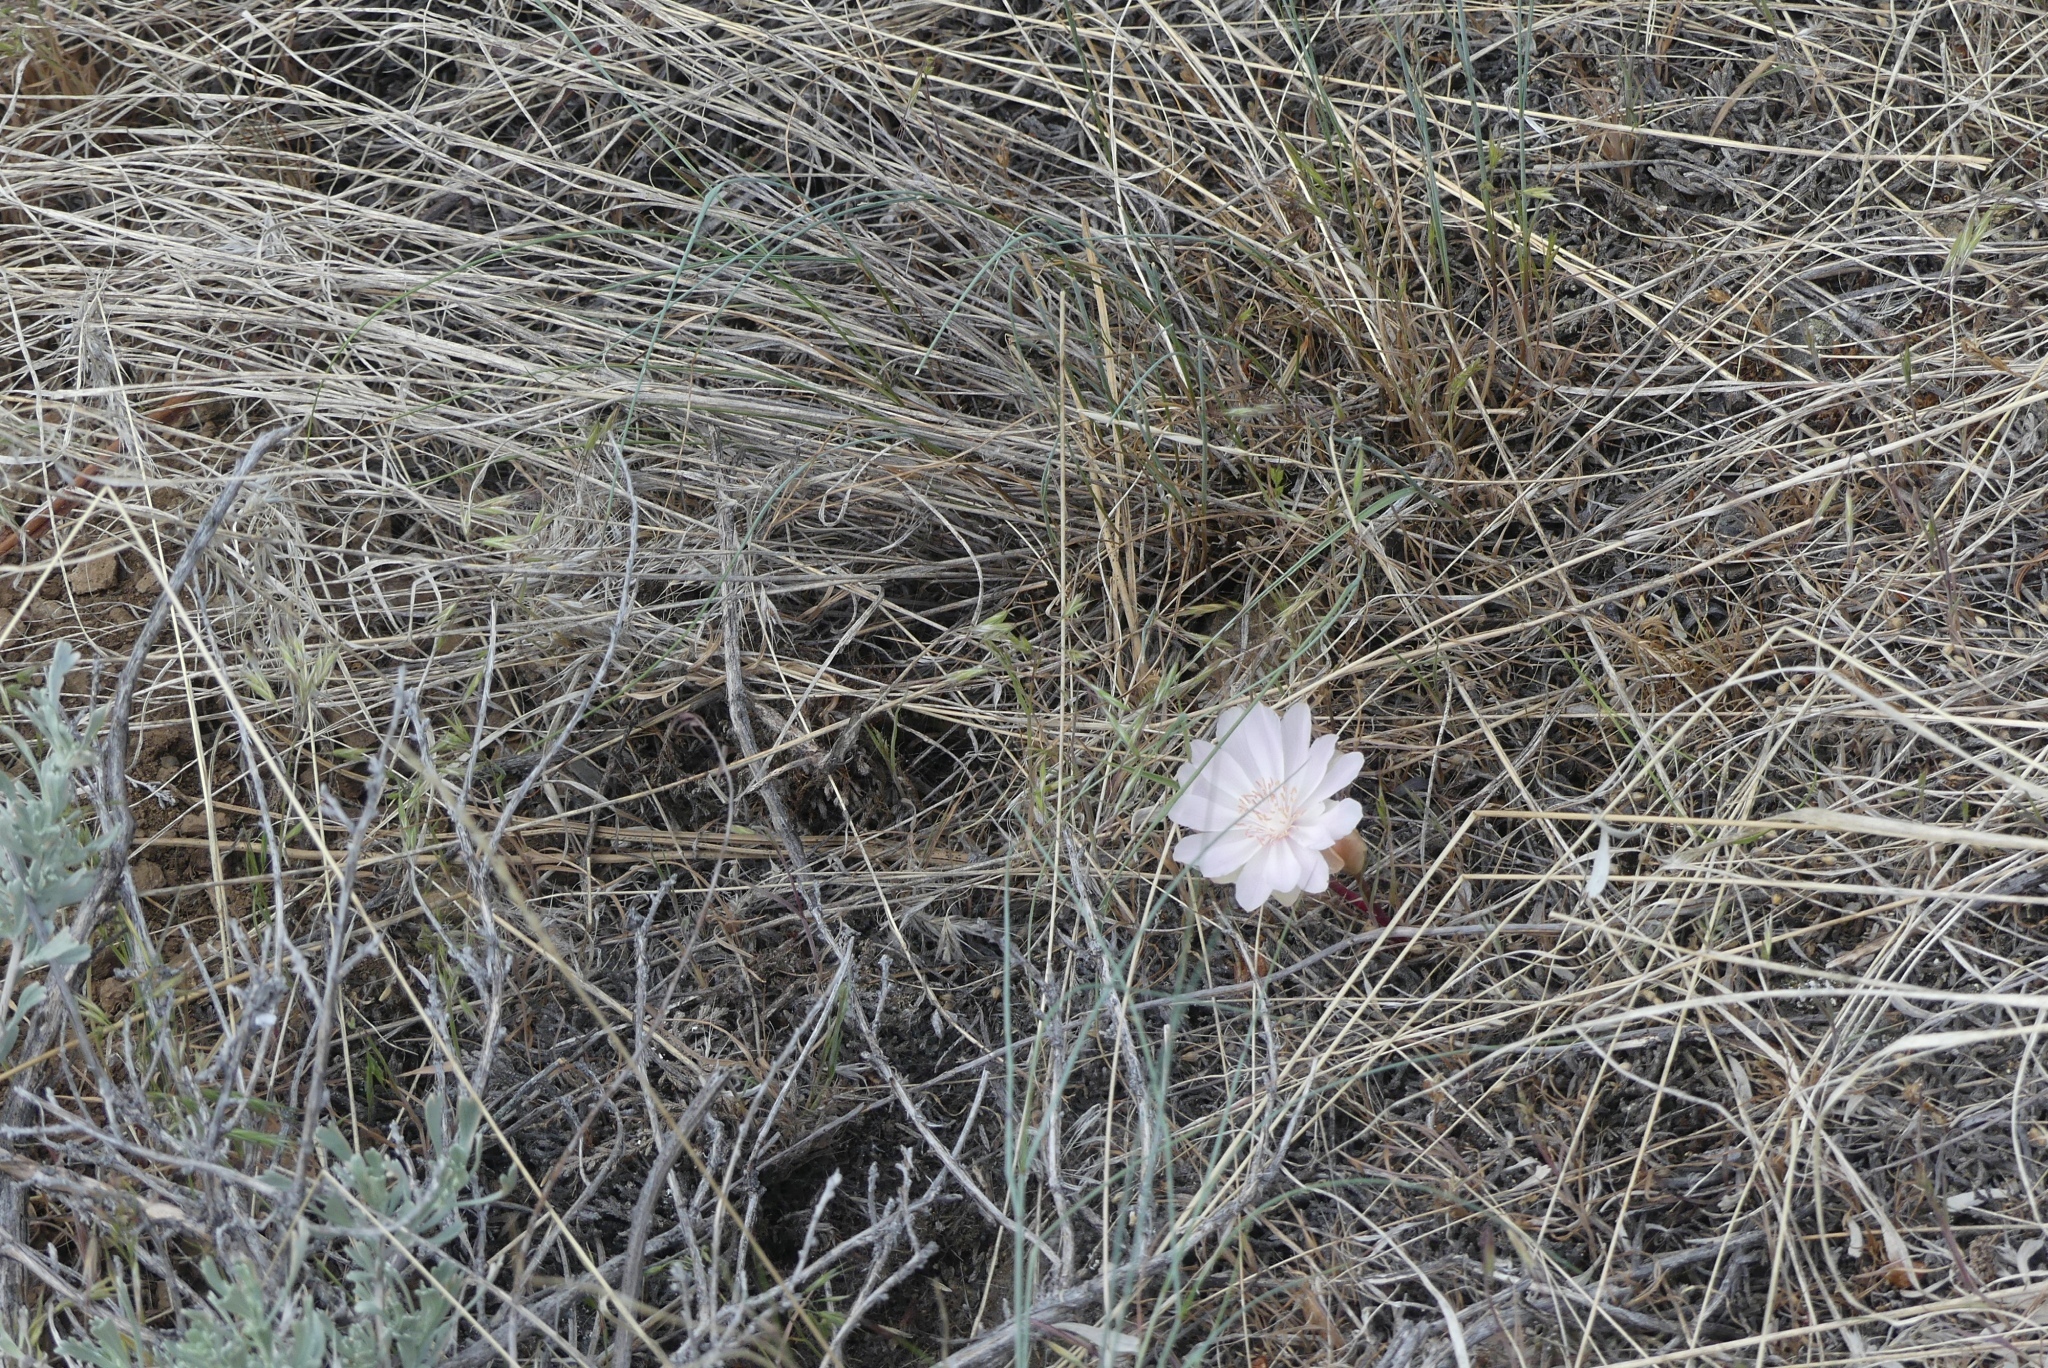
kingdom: Plantae
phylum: Tracheophyta
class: Magnoliopsida
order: Caryophyllales
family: Montiaceae
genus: Lewisia
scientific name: Lewisia rediviva
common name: Bitter-root
